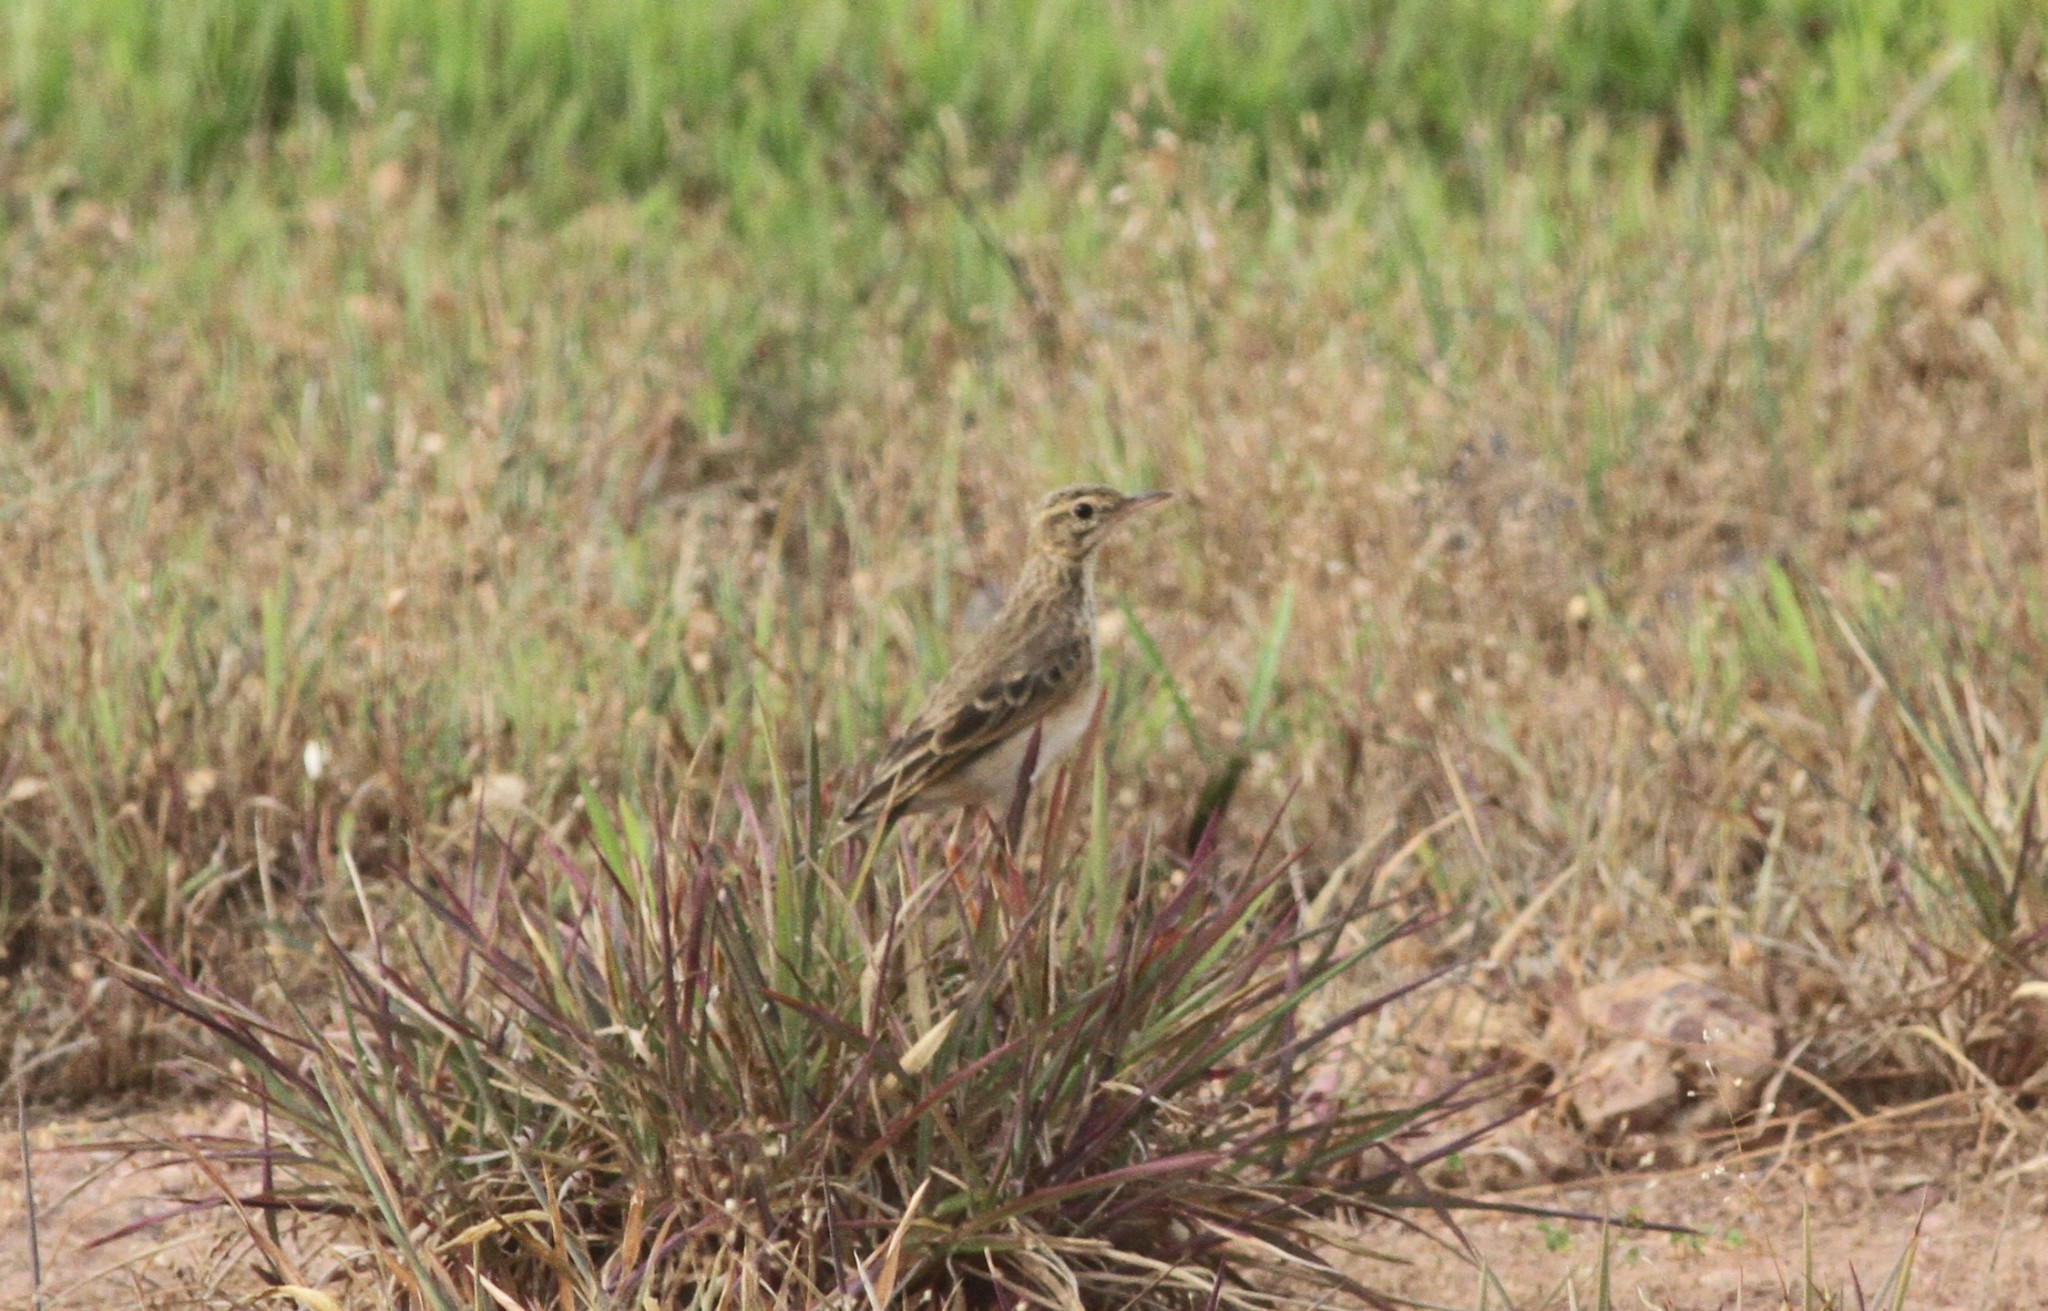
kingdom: Animalia
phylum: Chordata
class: Aves
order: Passeriformes
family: Motacillidae
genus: Anthus
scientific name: Anthus rufulus
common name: Paddyfield pipit
